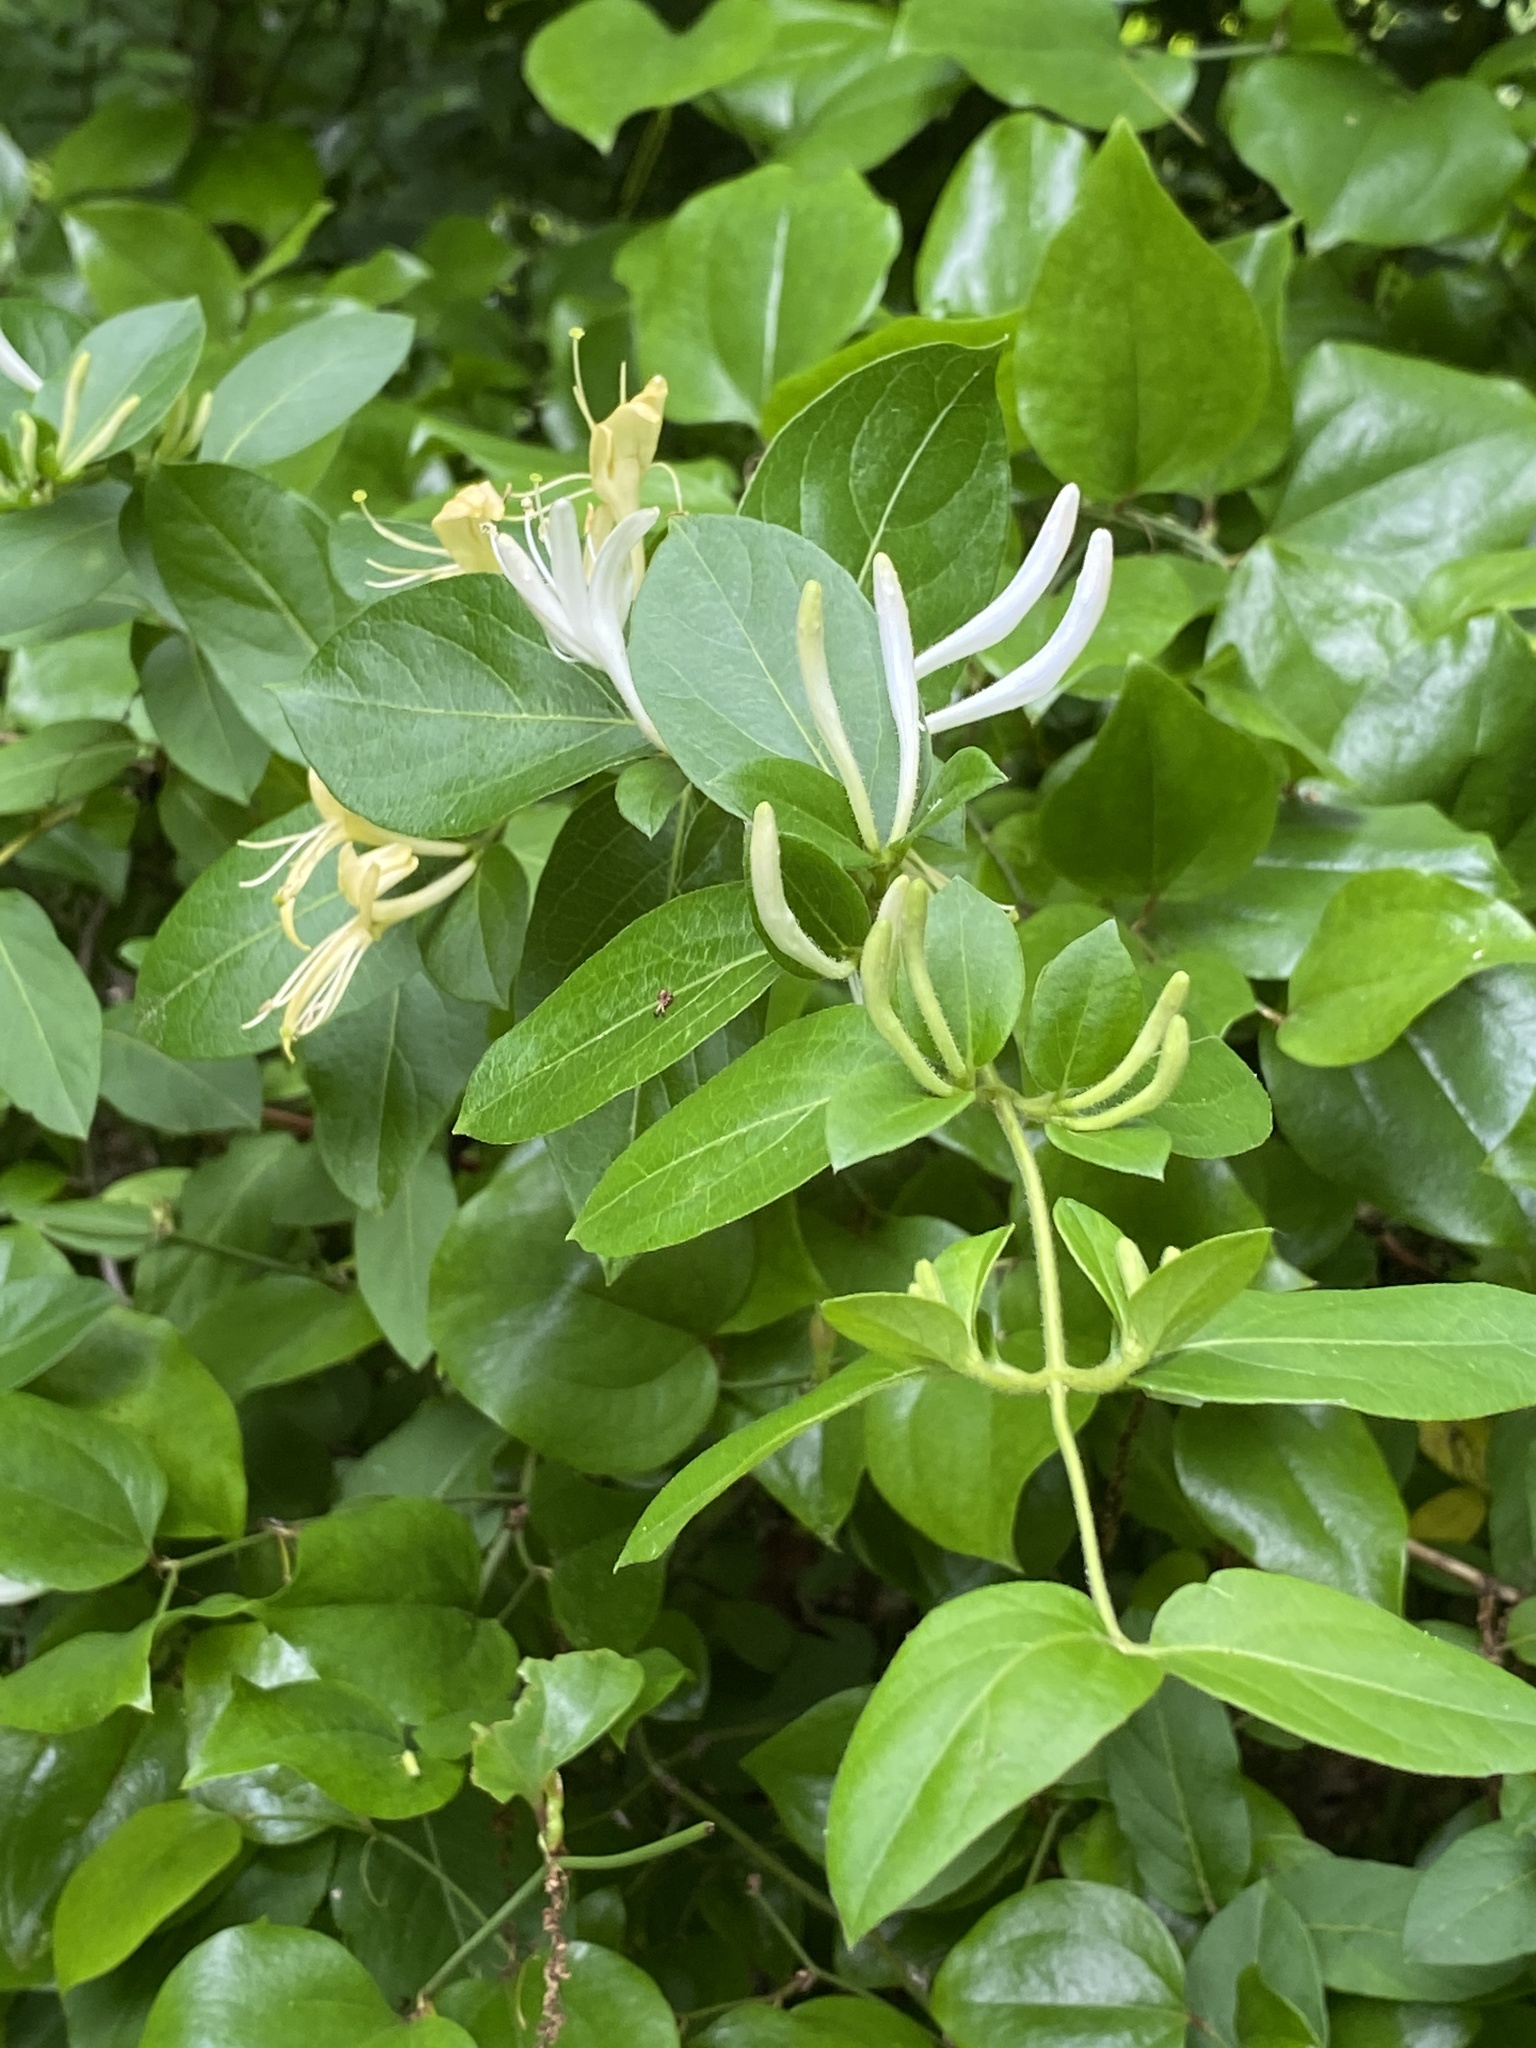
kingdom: Plantae
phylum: Tracheophyta
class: Magnoliopsida
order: Dipsacales
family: Caprifoliaceae
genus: Lonicera
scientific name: Lonicera japonica
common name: Japanese honeysuckle
